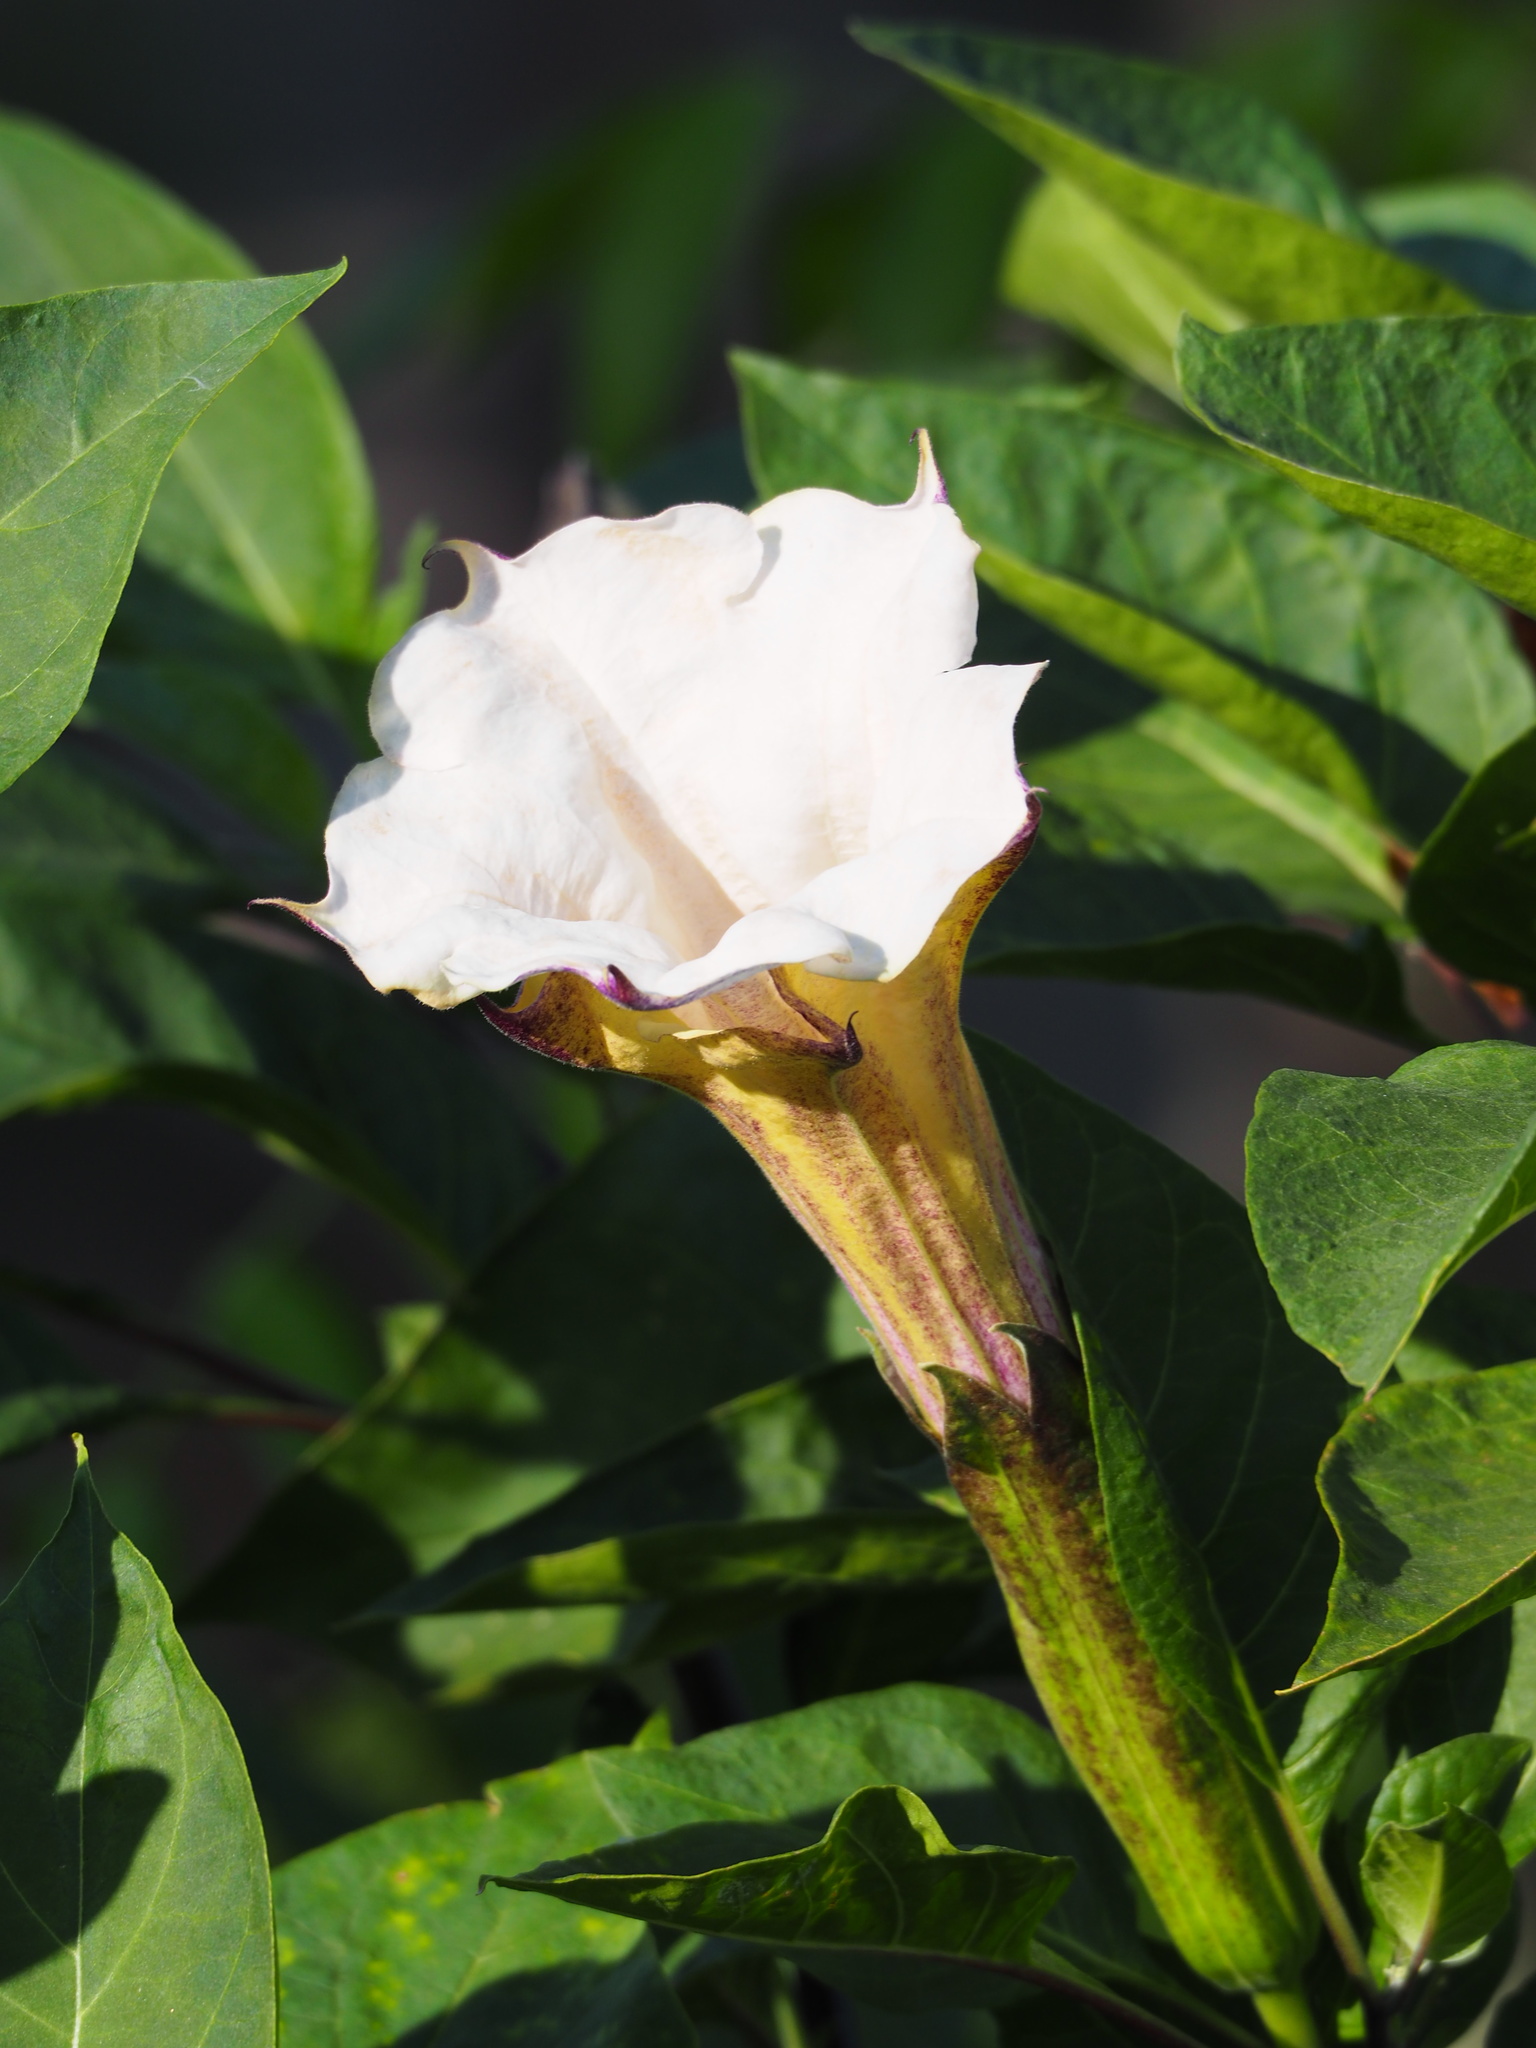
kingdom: Plantae
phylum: Tracheophyta
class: Magnoliopsida
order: Solanales
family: Solanaceae
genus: Datura
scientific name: Datura metel
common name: Jimsonweed
